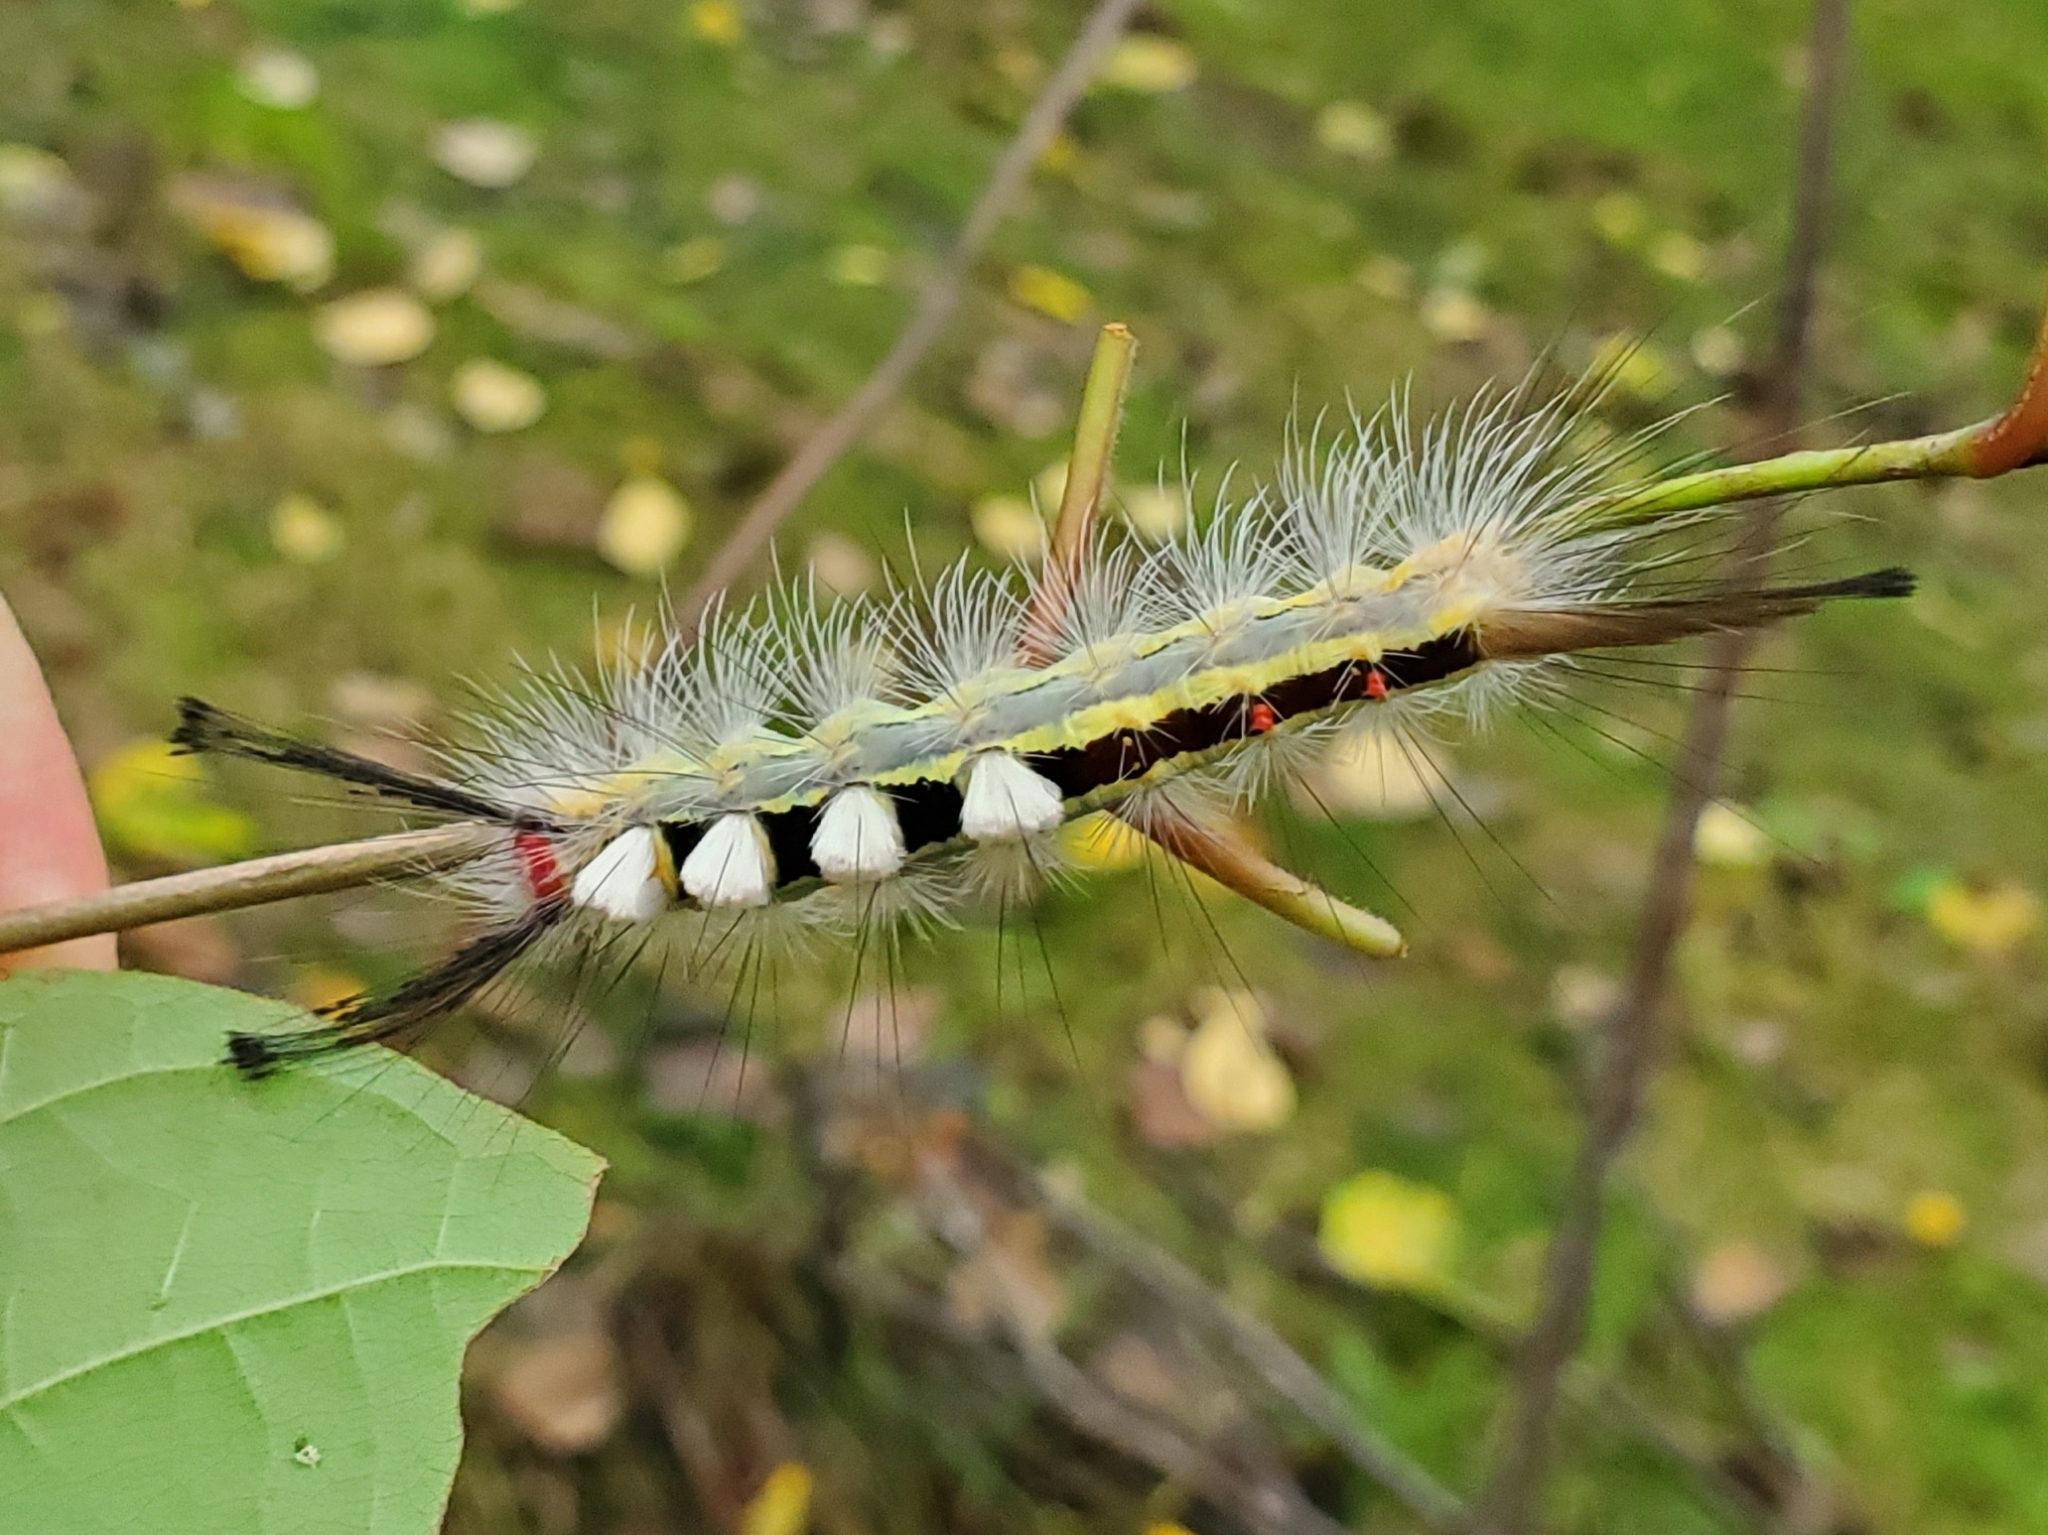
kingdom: Animalia
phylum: Arthropoda
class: Insecta
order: Lepidoptera
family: Erebidae
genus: Orgyia
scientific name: Orgyia leucostigma
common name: White-marked tussock moth
